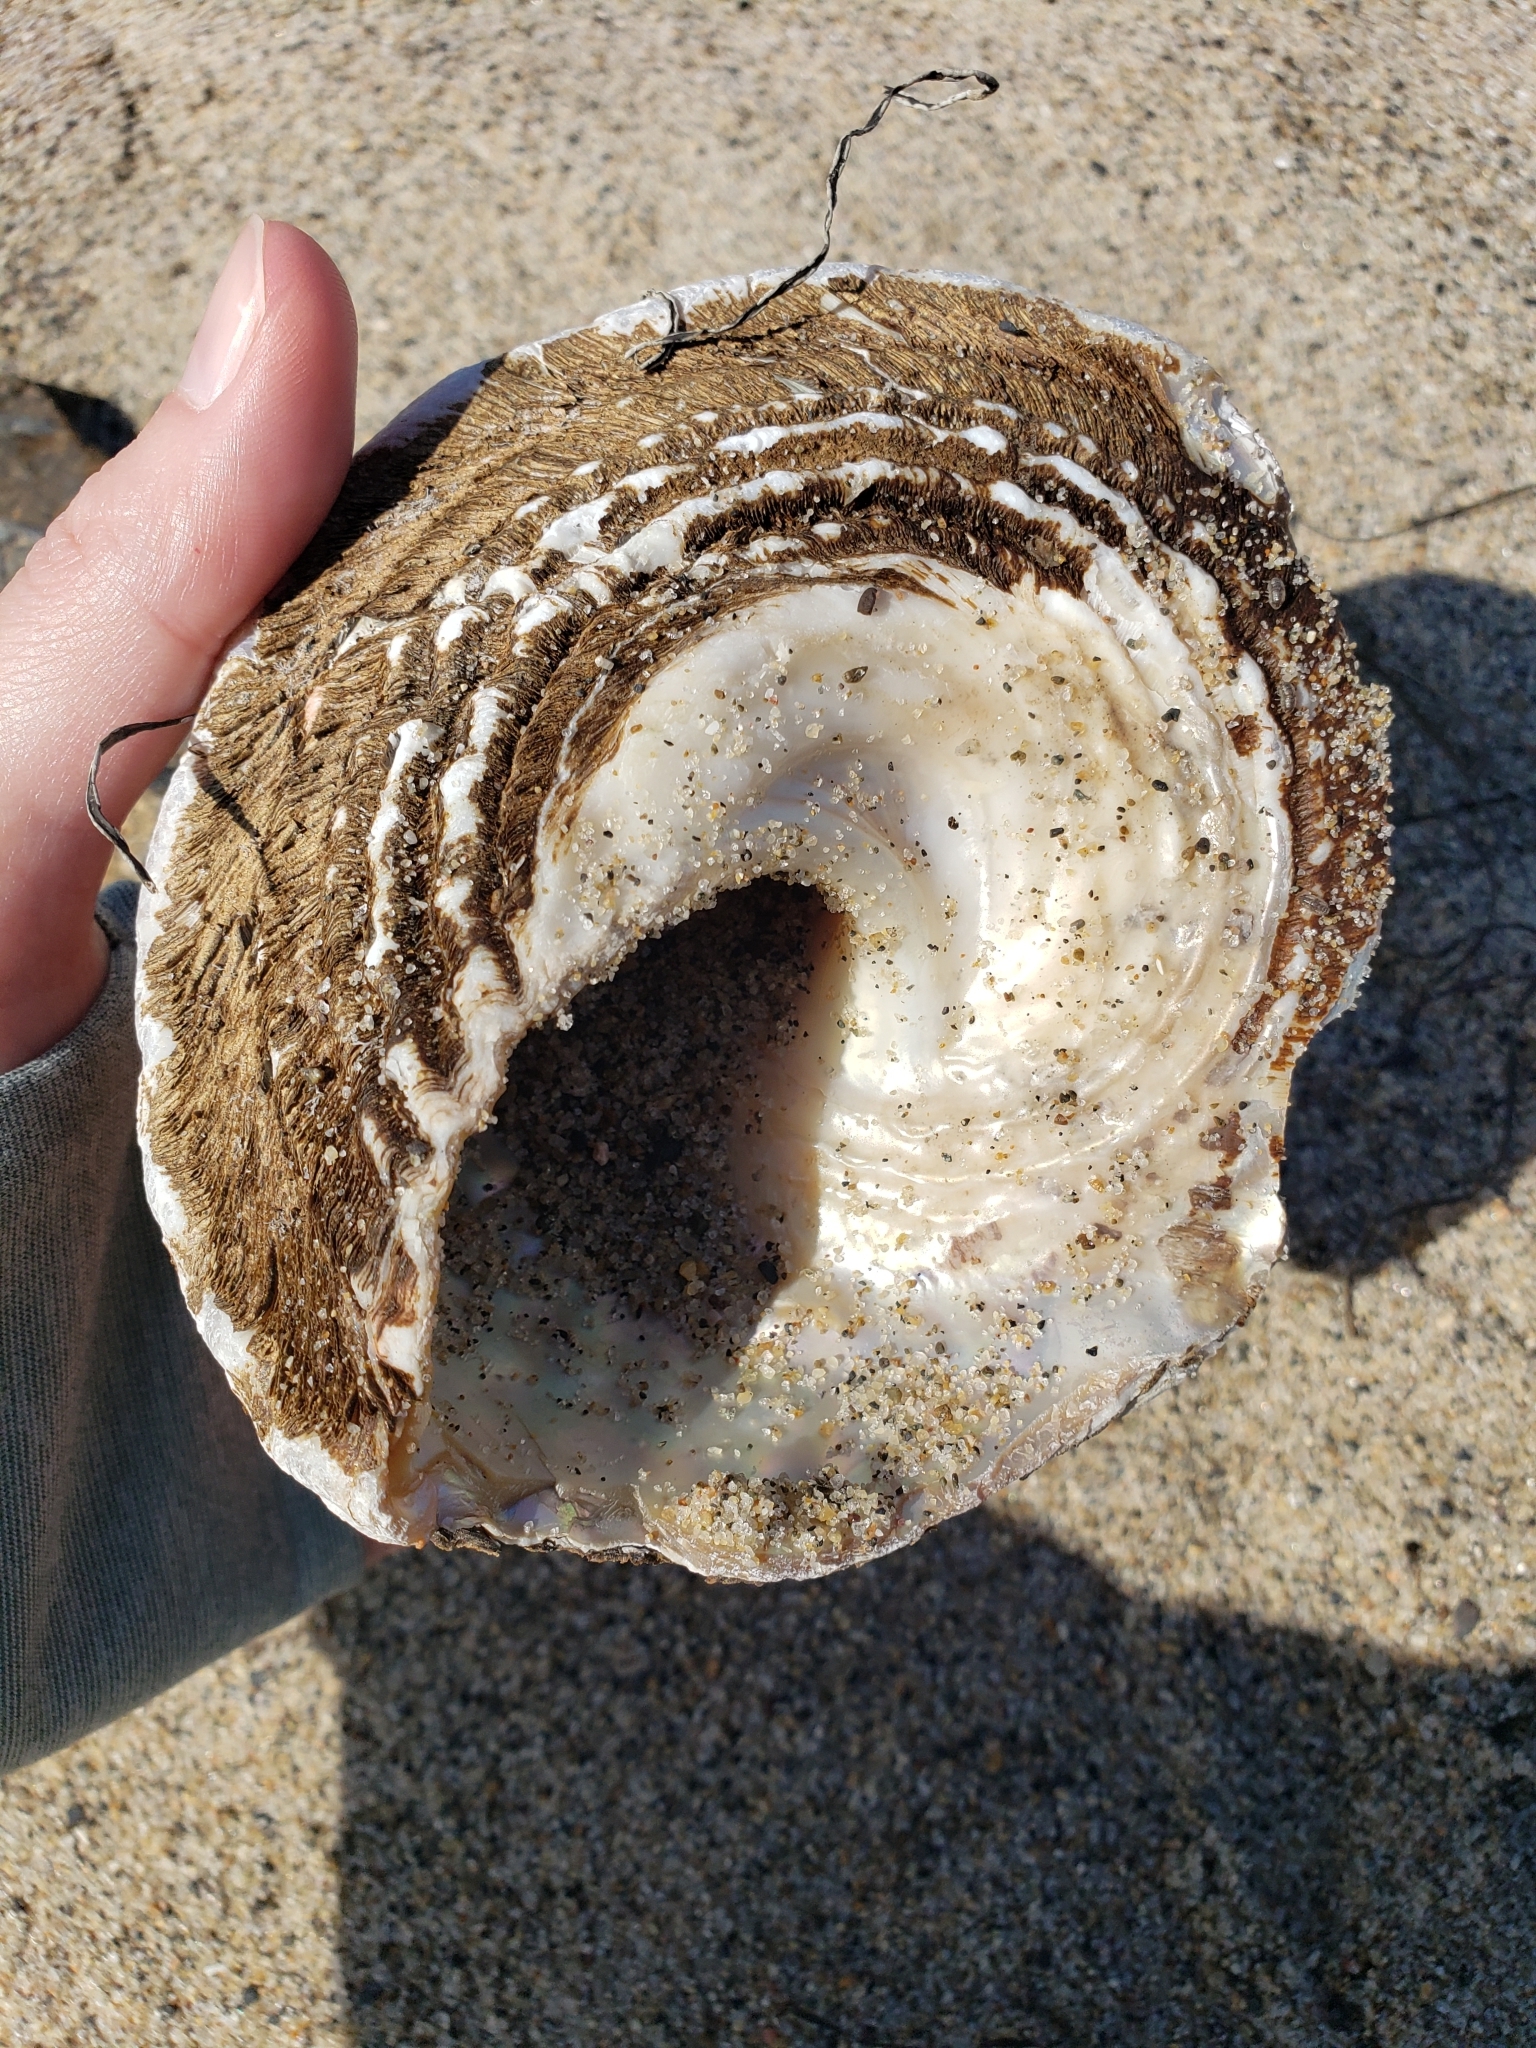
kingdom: Animalia
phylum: Mollusca
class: Gastropoda
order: Trochida
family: Turbinidae
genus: Megastraea
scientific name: Megastraea undosa
